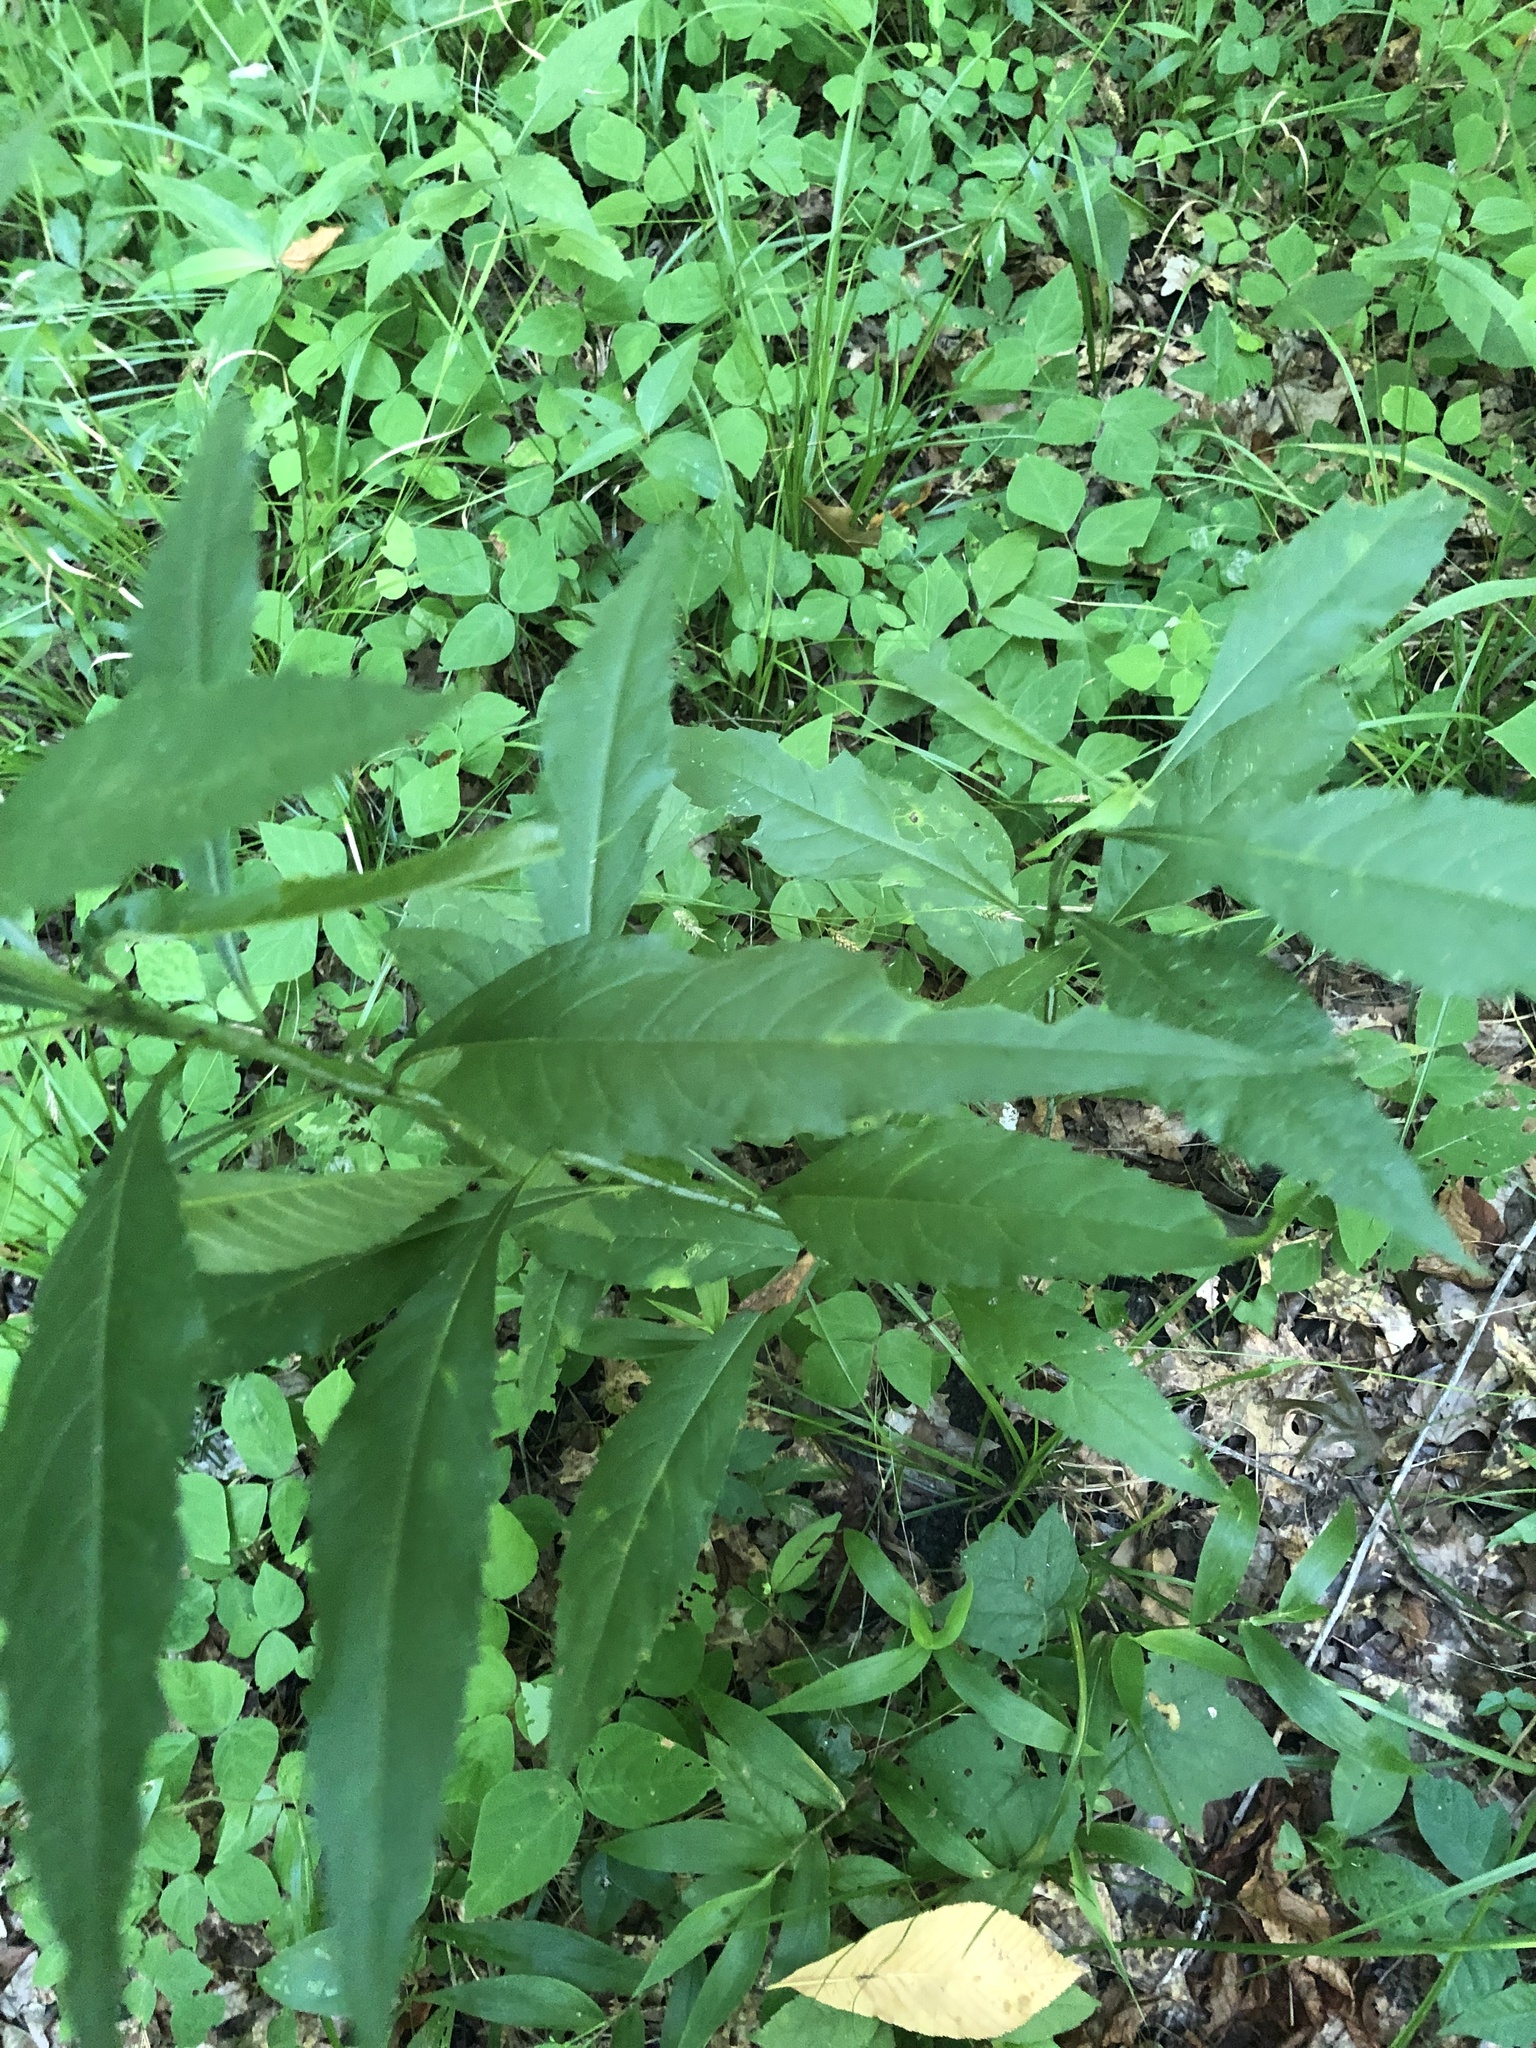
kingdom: Plantae
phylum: Tracheophyta
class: Magnoliopsida
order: Asterales
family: Asteraceae
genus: Verbesina
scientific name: Verbesina walteri
